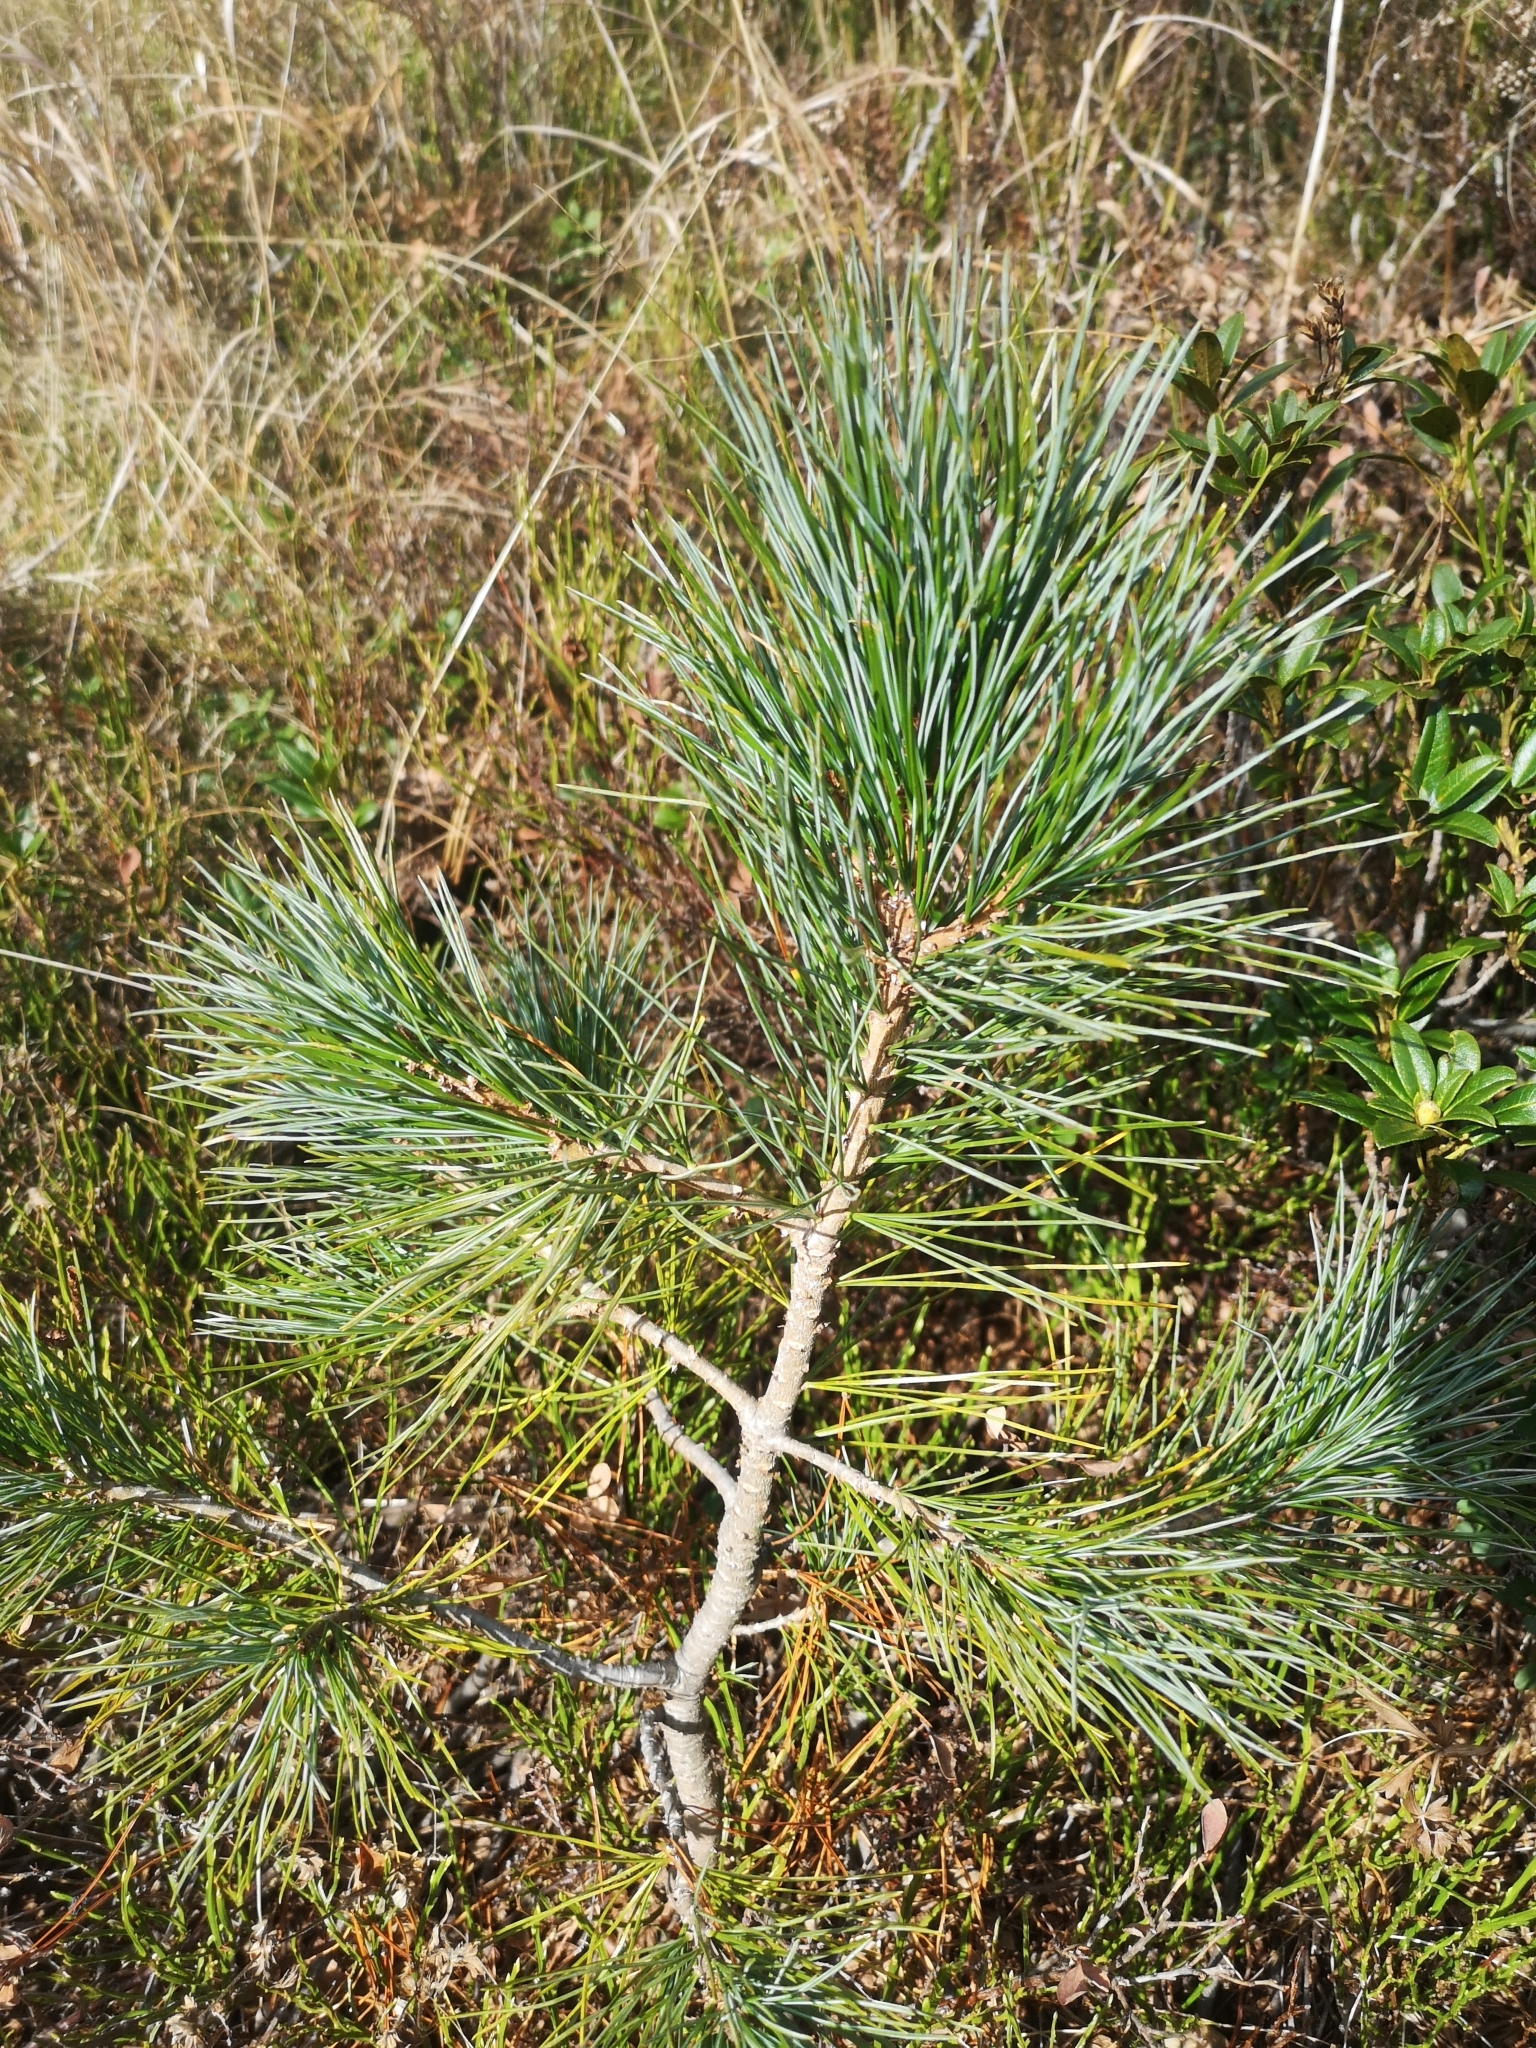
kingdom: Plantae
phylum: Tracheophyta
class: Pinopsida
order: Pinales
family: Pinaceae
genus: Pinus
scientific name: Pinus cembra
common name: Arolla pine
